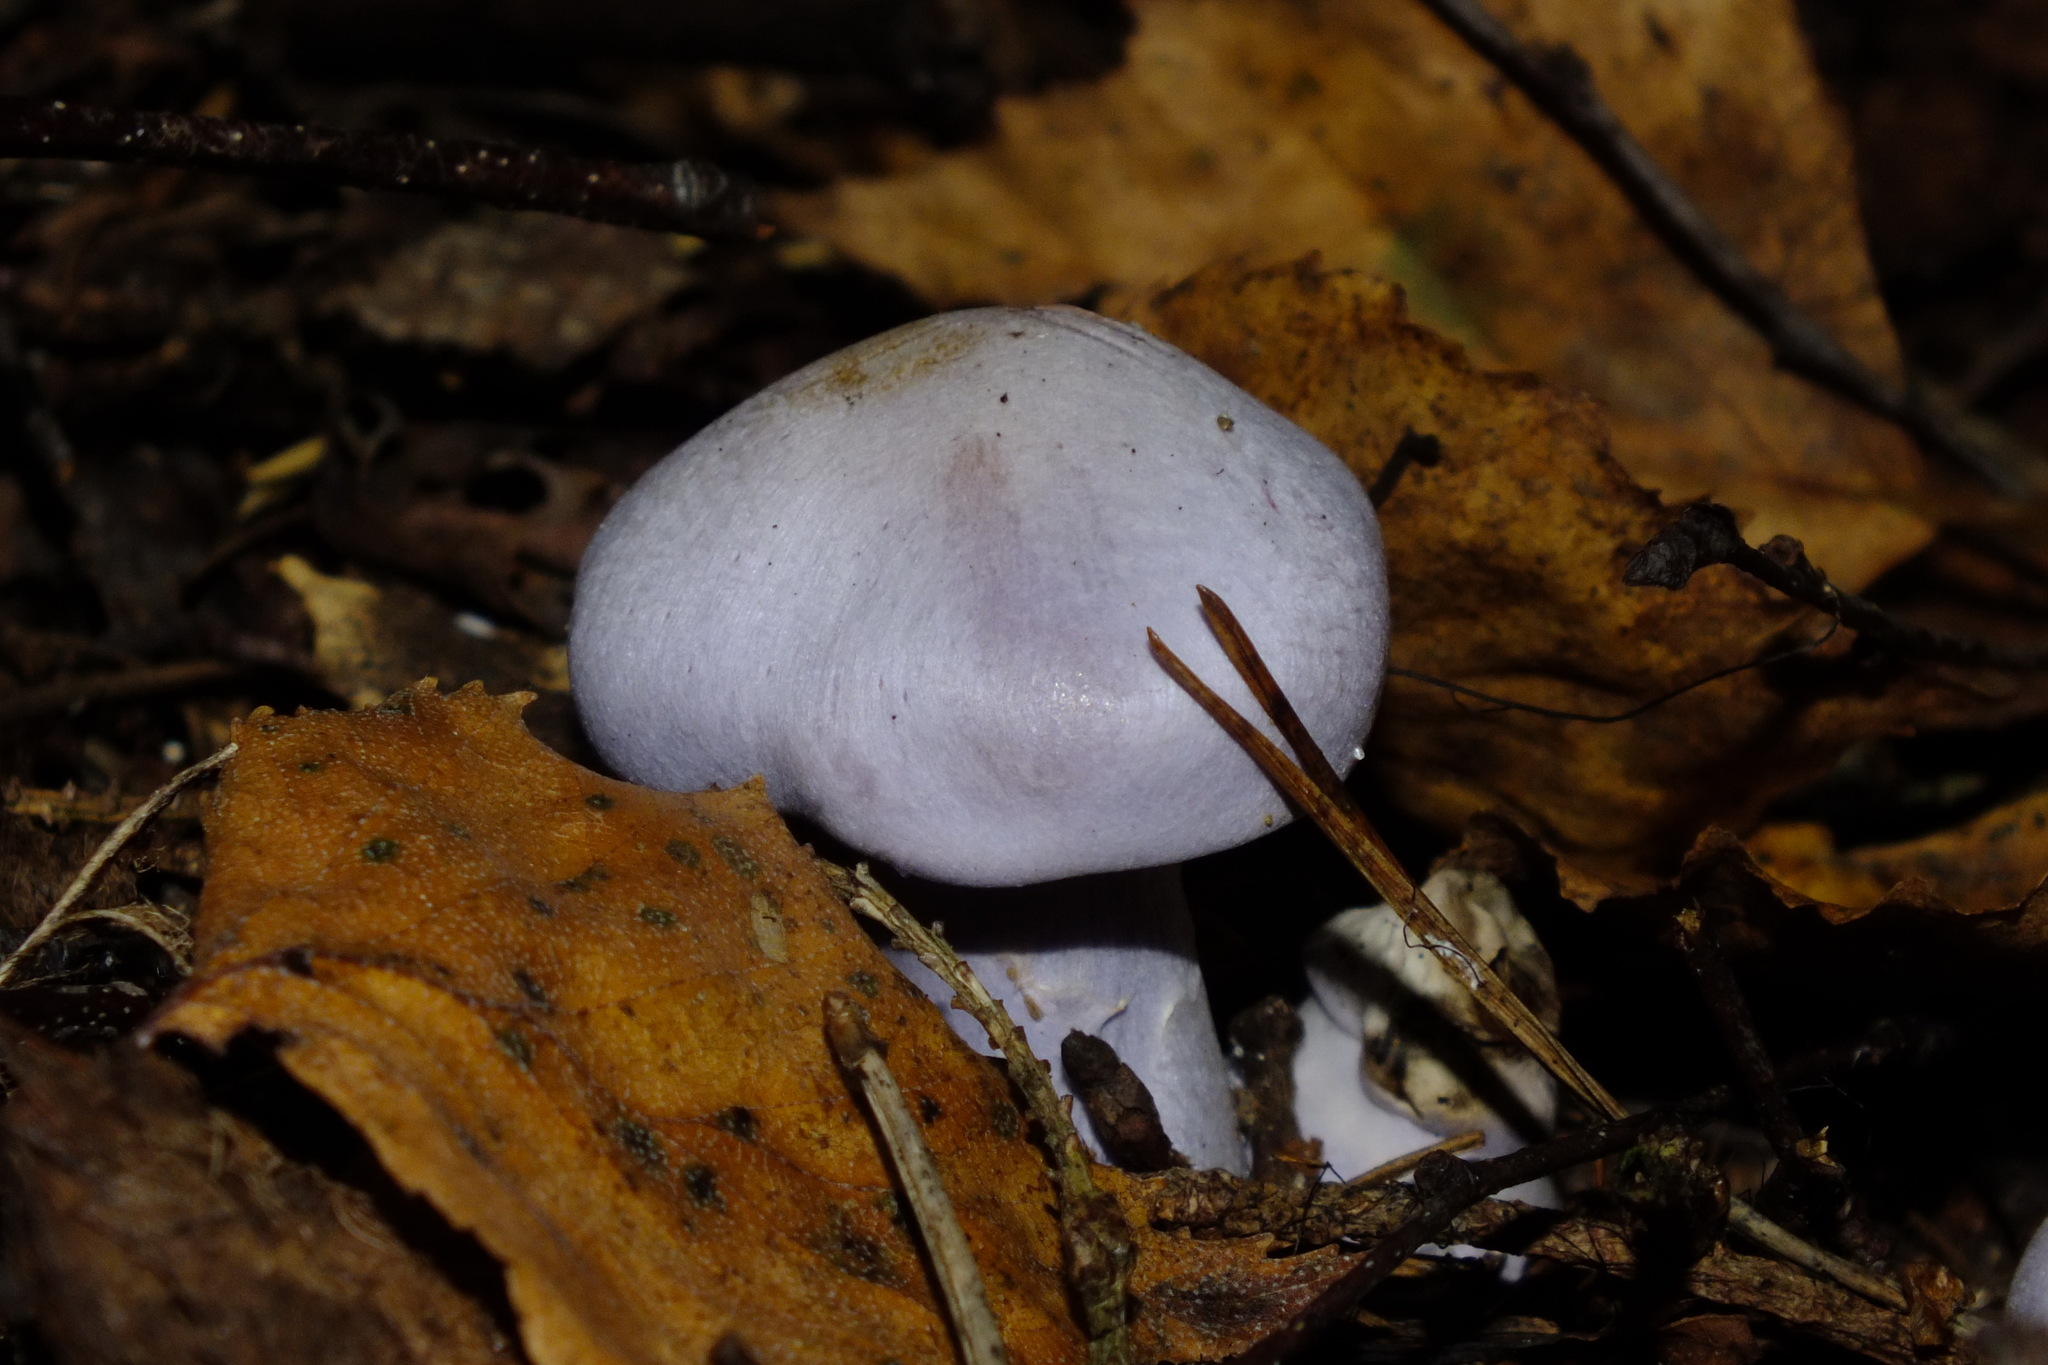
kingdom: Fungi
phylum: Basidiomycota
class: Agaricomycetes
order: Agaricales
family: Cortinariaceae
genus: Cortinarius
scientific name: Cortinarius alboviolaceus
